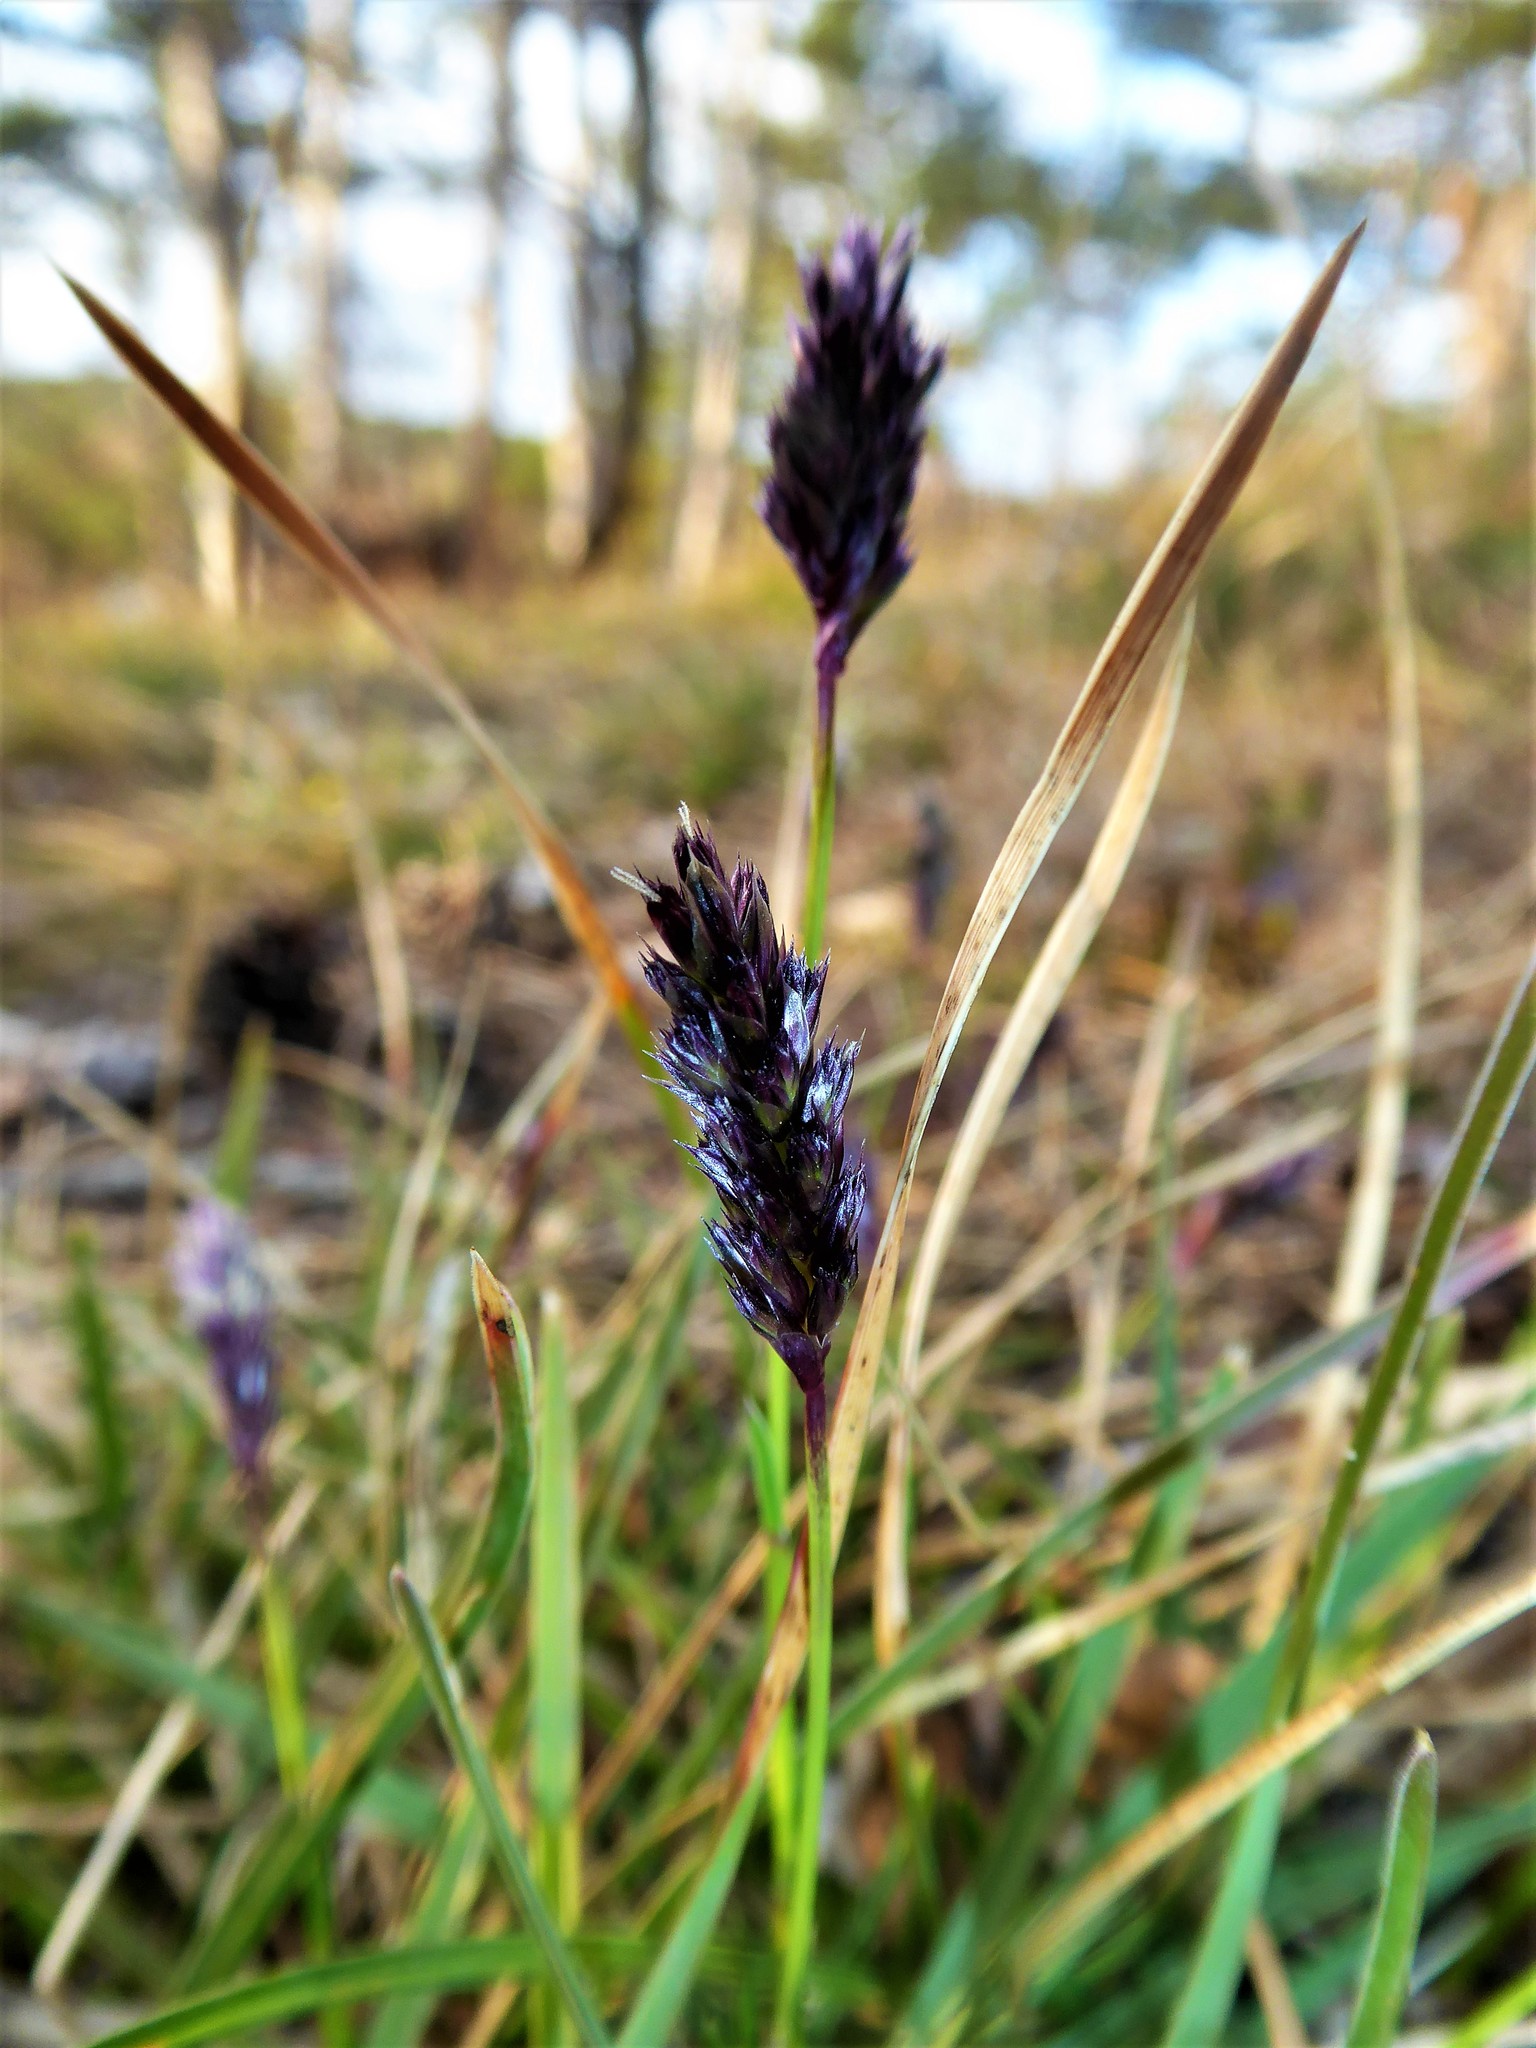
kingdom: Plantae
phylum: Tracheophyta
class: Liliopsida
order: Poales
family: Poaceae
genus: Sesleria
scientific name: Sesleria caerulea
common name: Blue moor-grass
